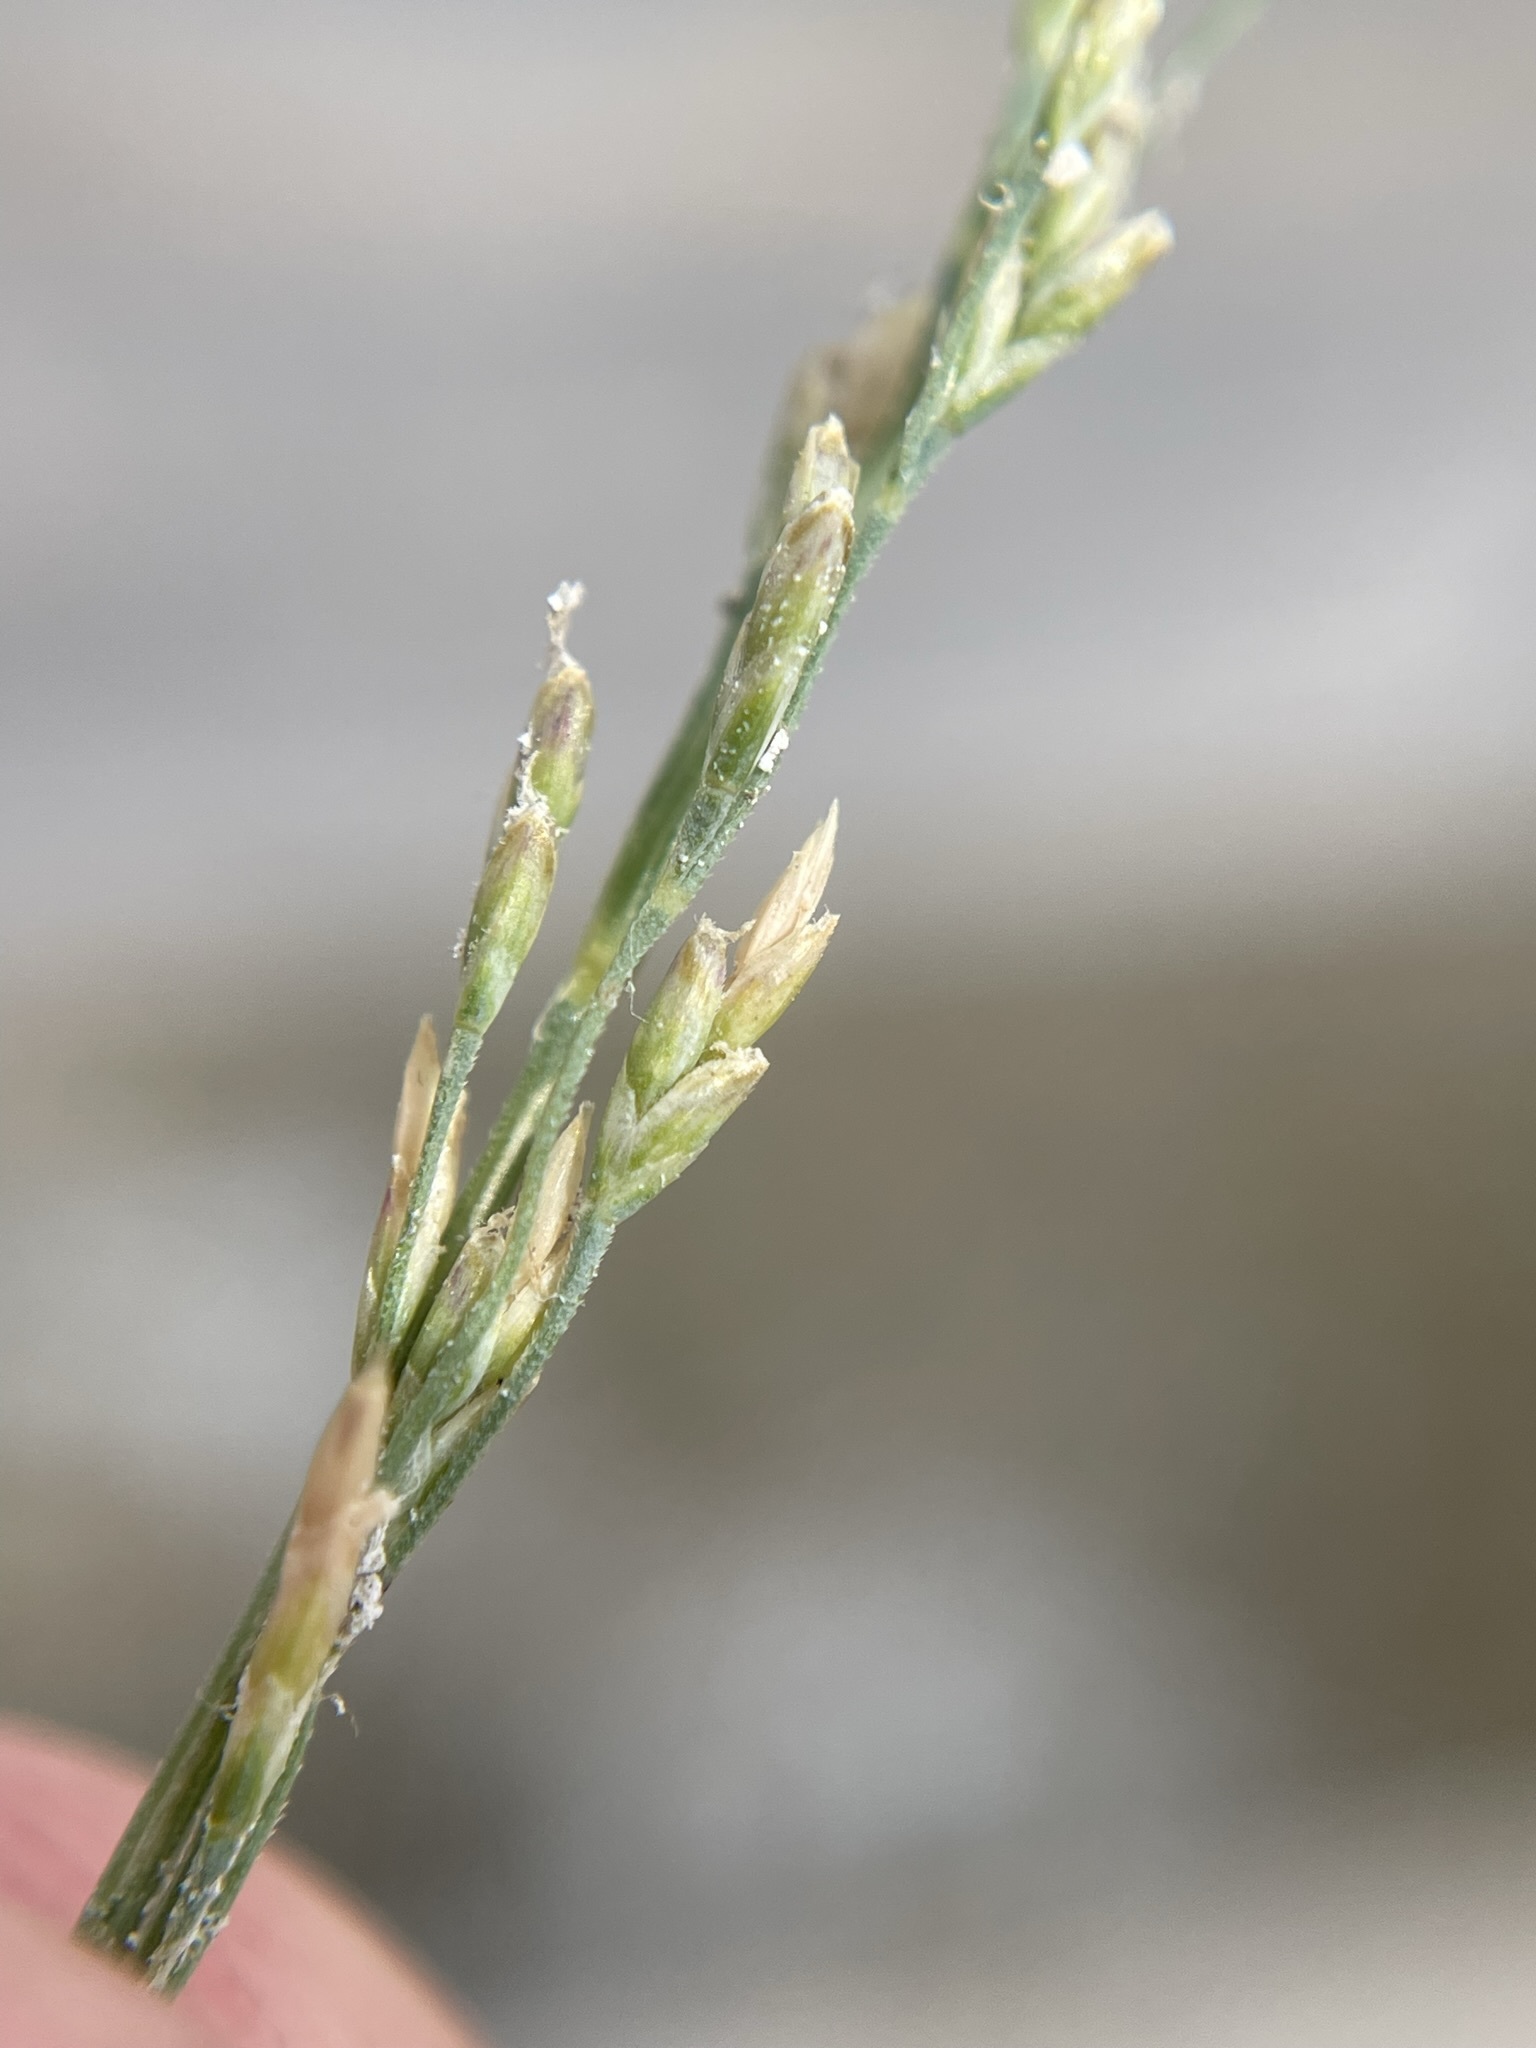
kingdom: Plantae
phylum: Tracheophyta
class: Liliopsida
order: Poales
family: Poaceae
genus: Puccinellia
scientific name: Puccinellia nuttalliana
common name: Nuttall's alkali grass
